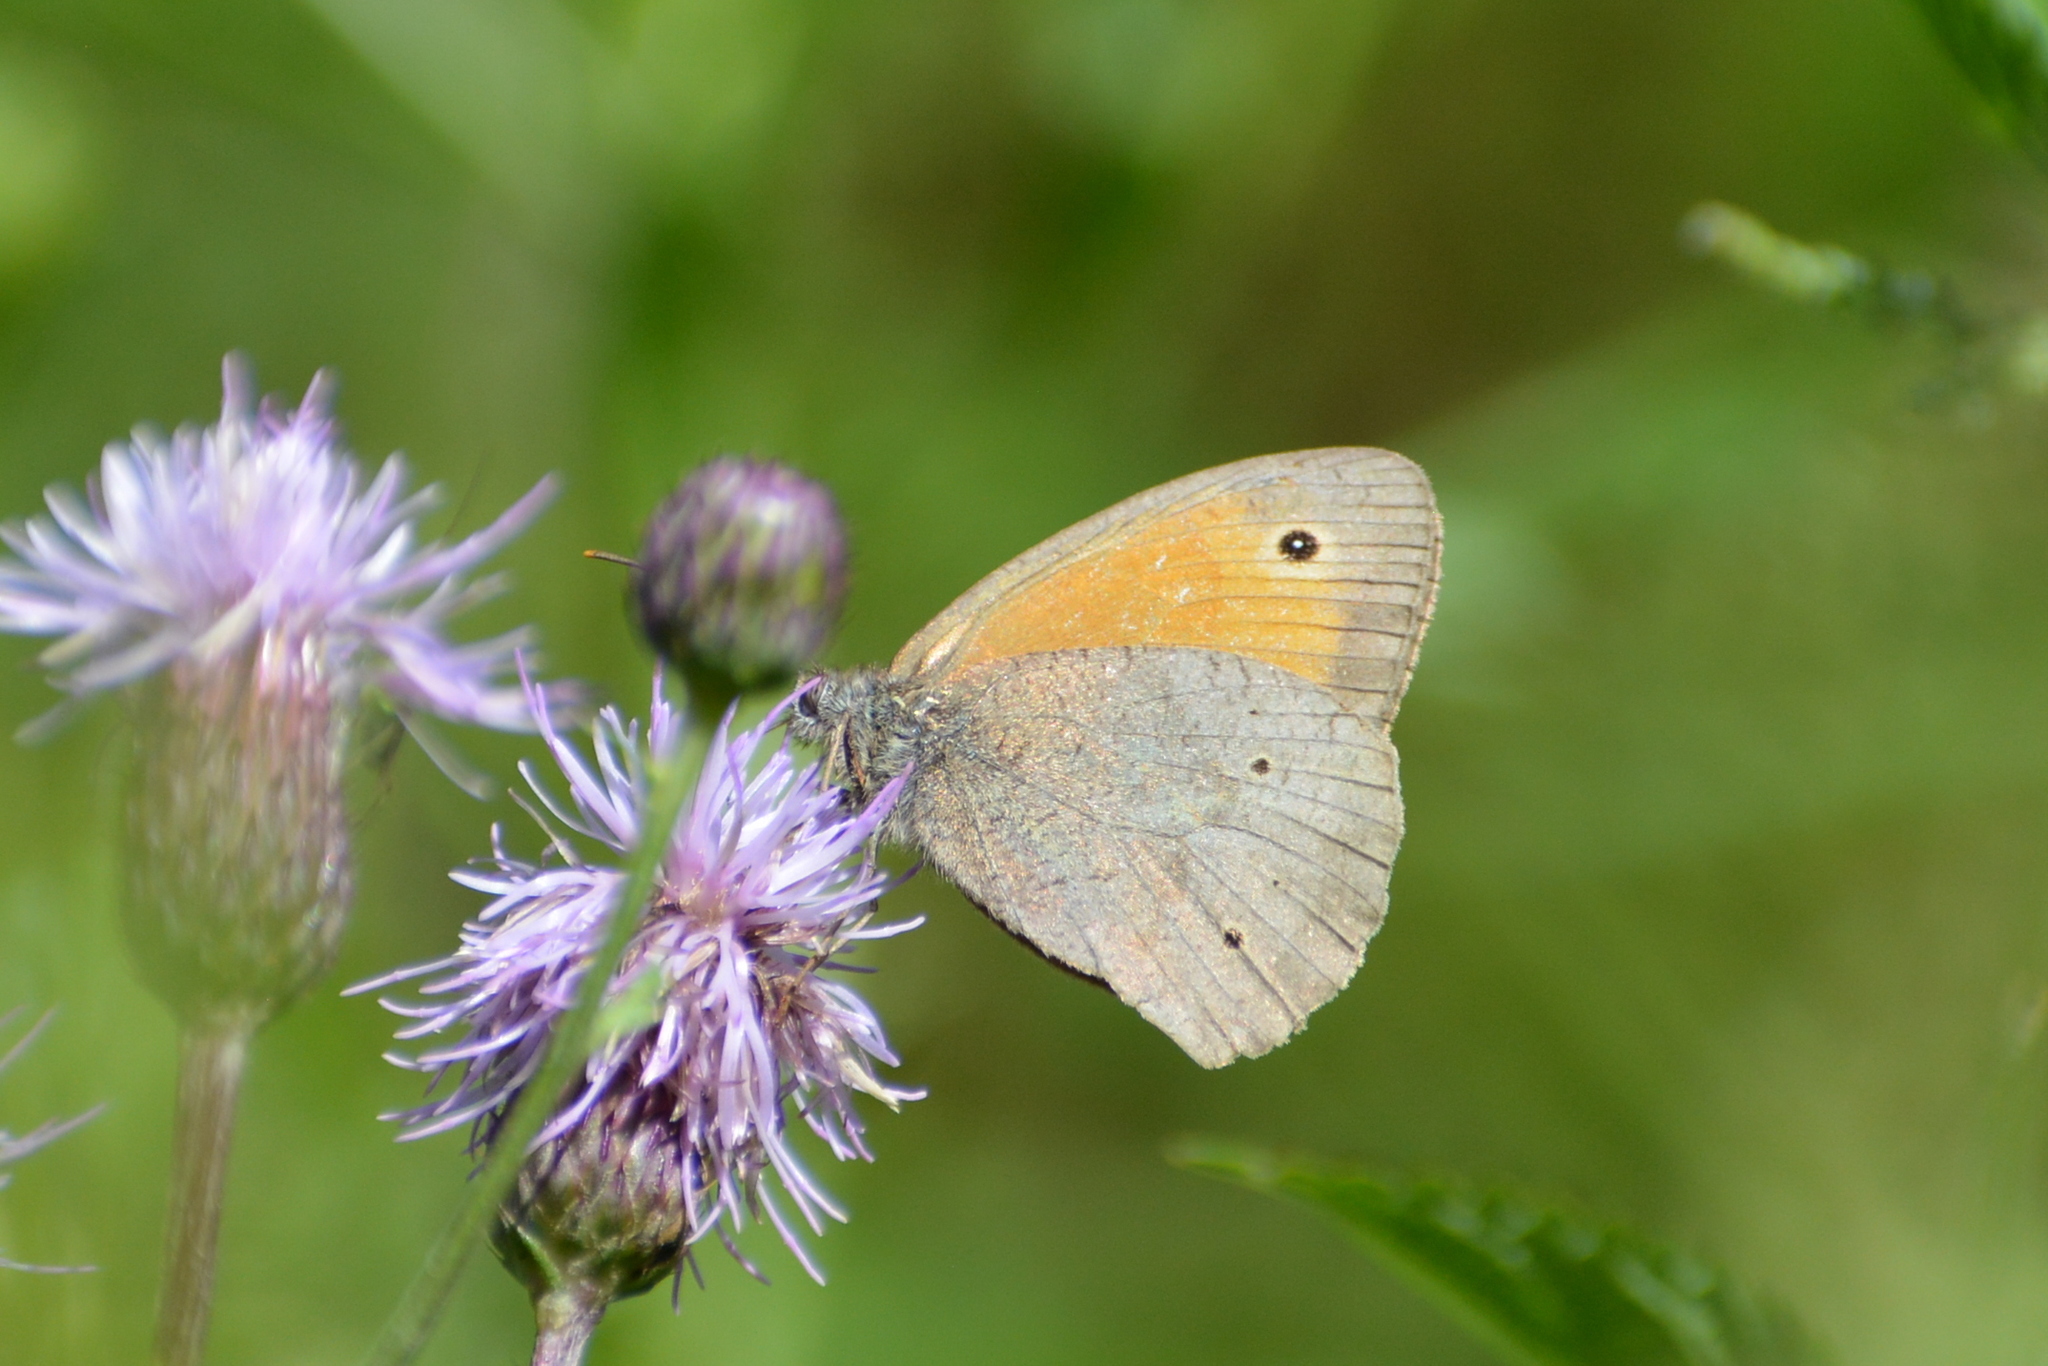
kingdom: Animalia
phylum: Arthropoda
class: Insecta
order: Lepidoptera
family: Nymphalidae
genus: Maniola
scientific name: Maniola jurtina
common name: Meadow brown
